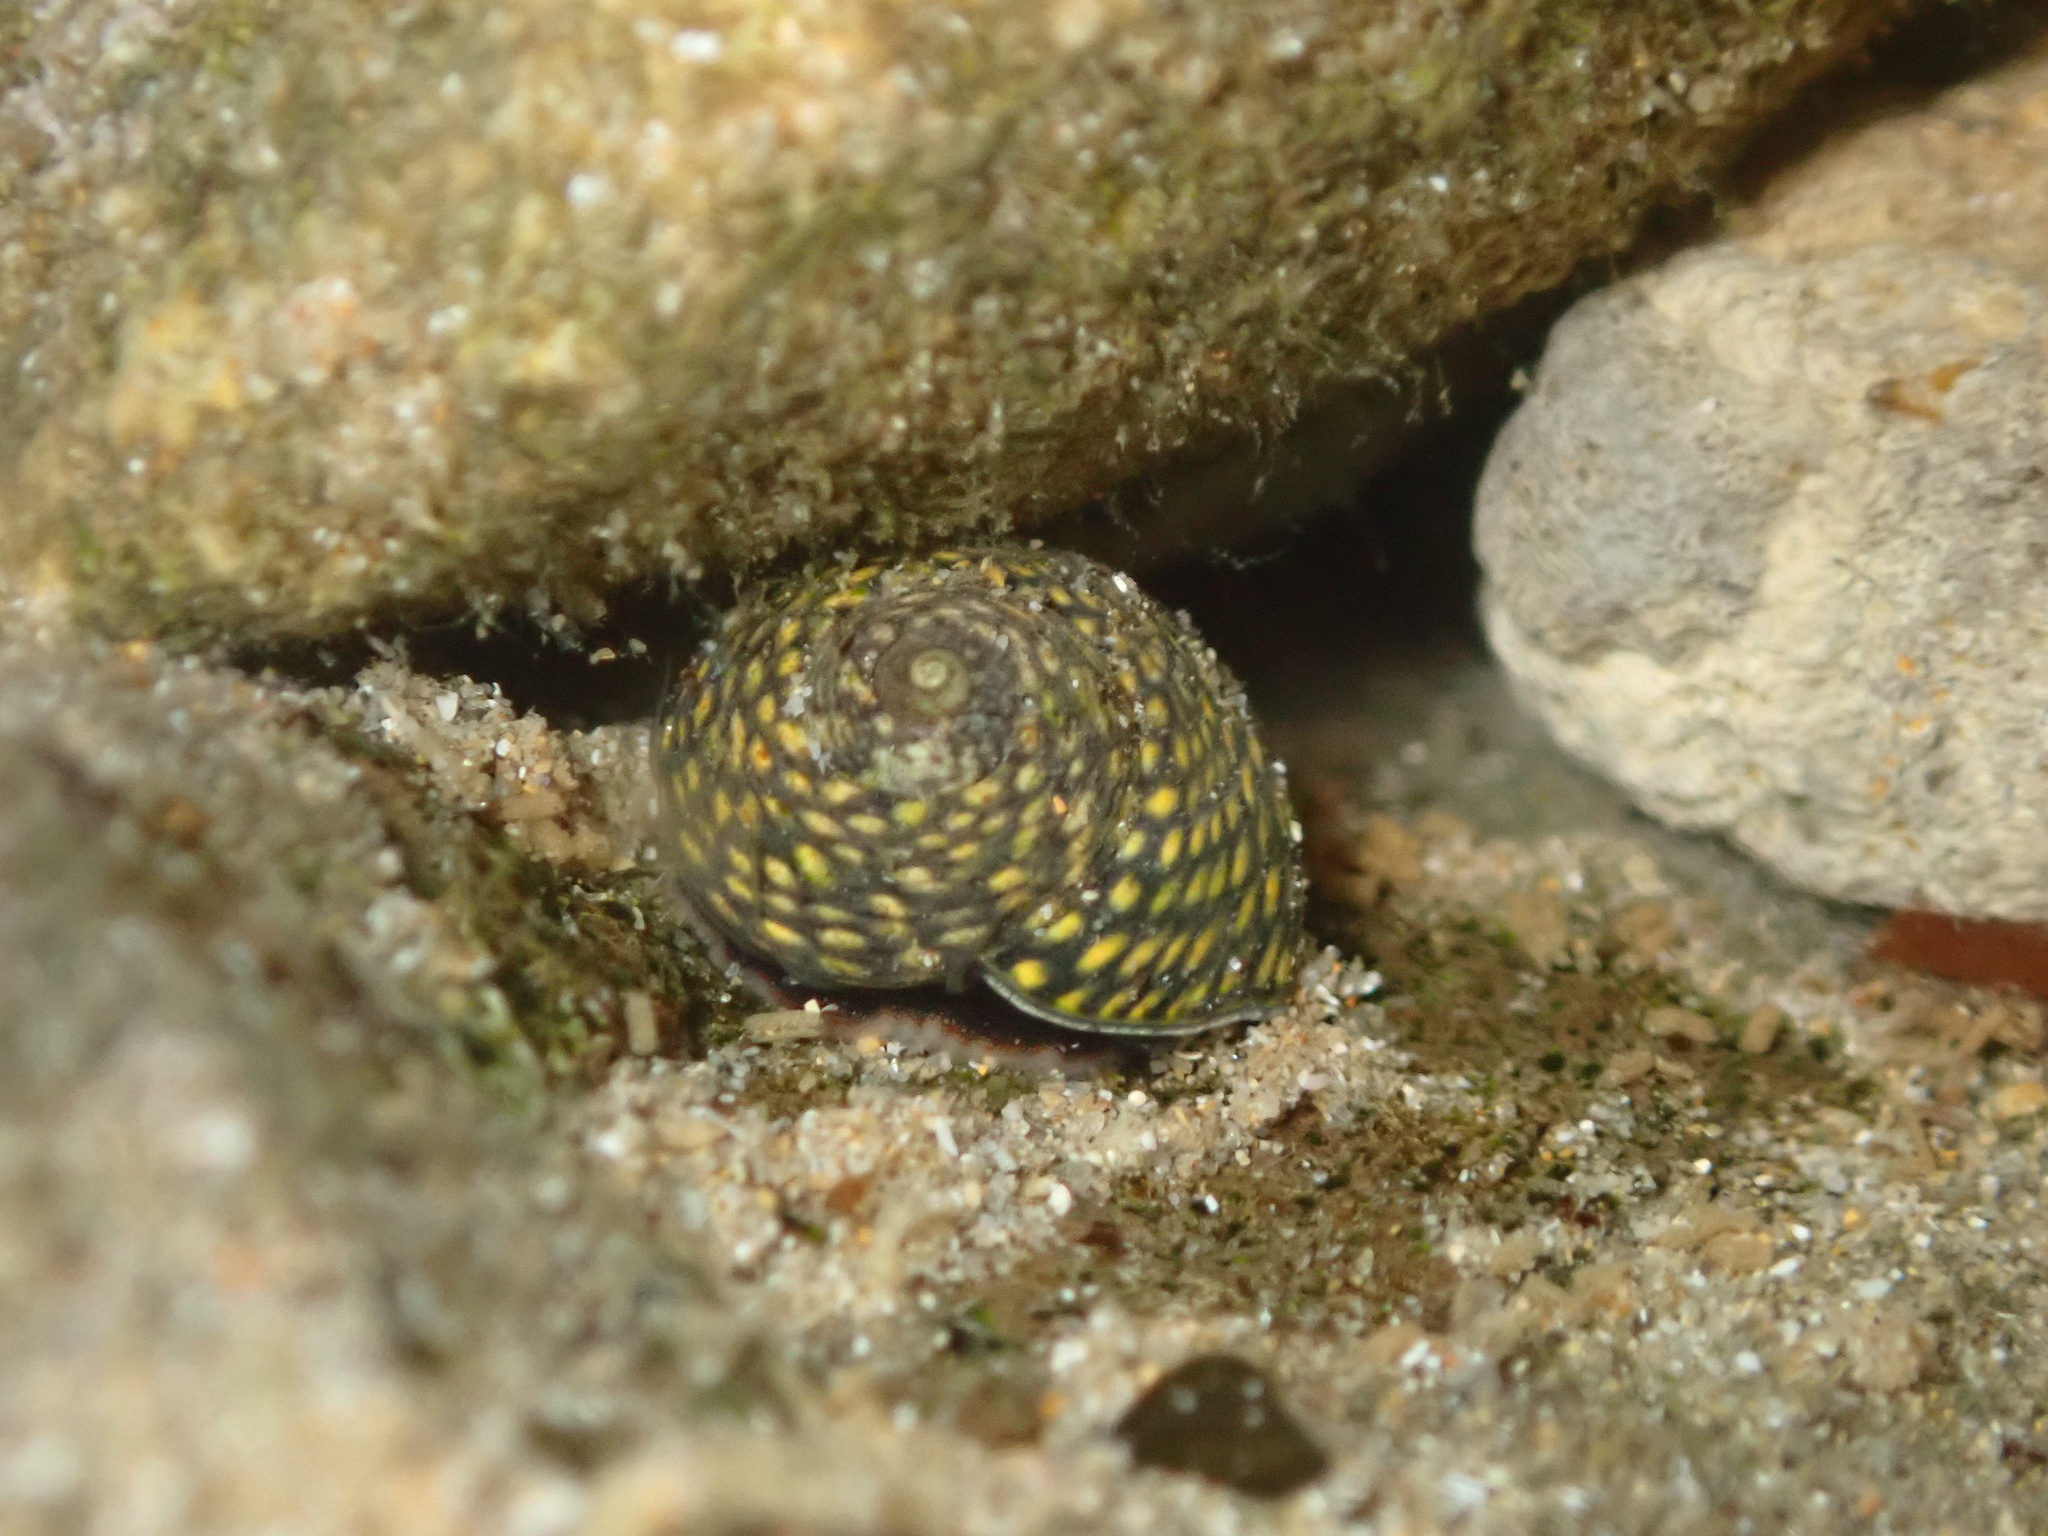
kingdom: Animalia
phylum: Mollusca
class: Gastropoda
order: Trochida
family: Trochidae
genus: Chlorodiloma
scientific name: Chlorodiloma odontis
